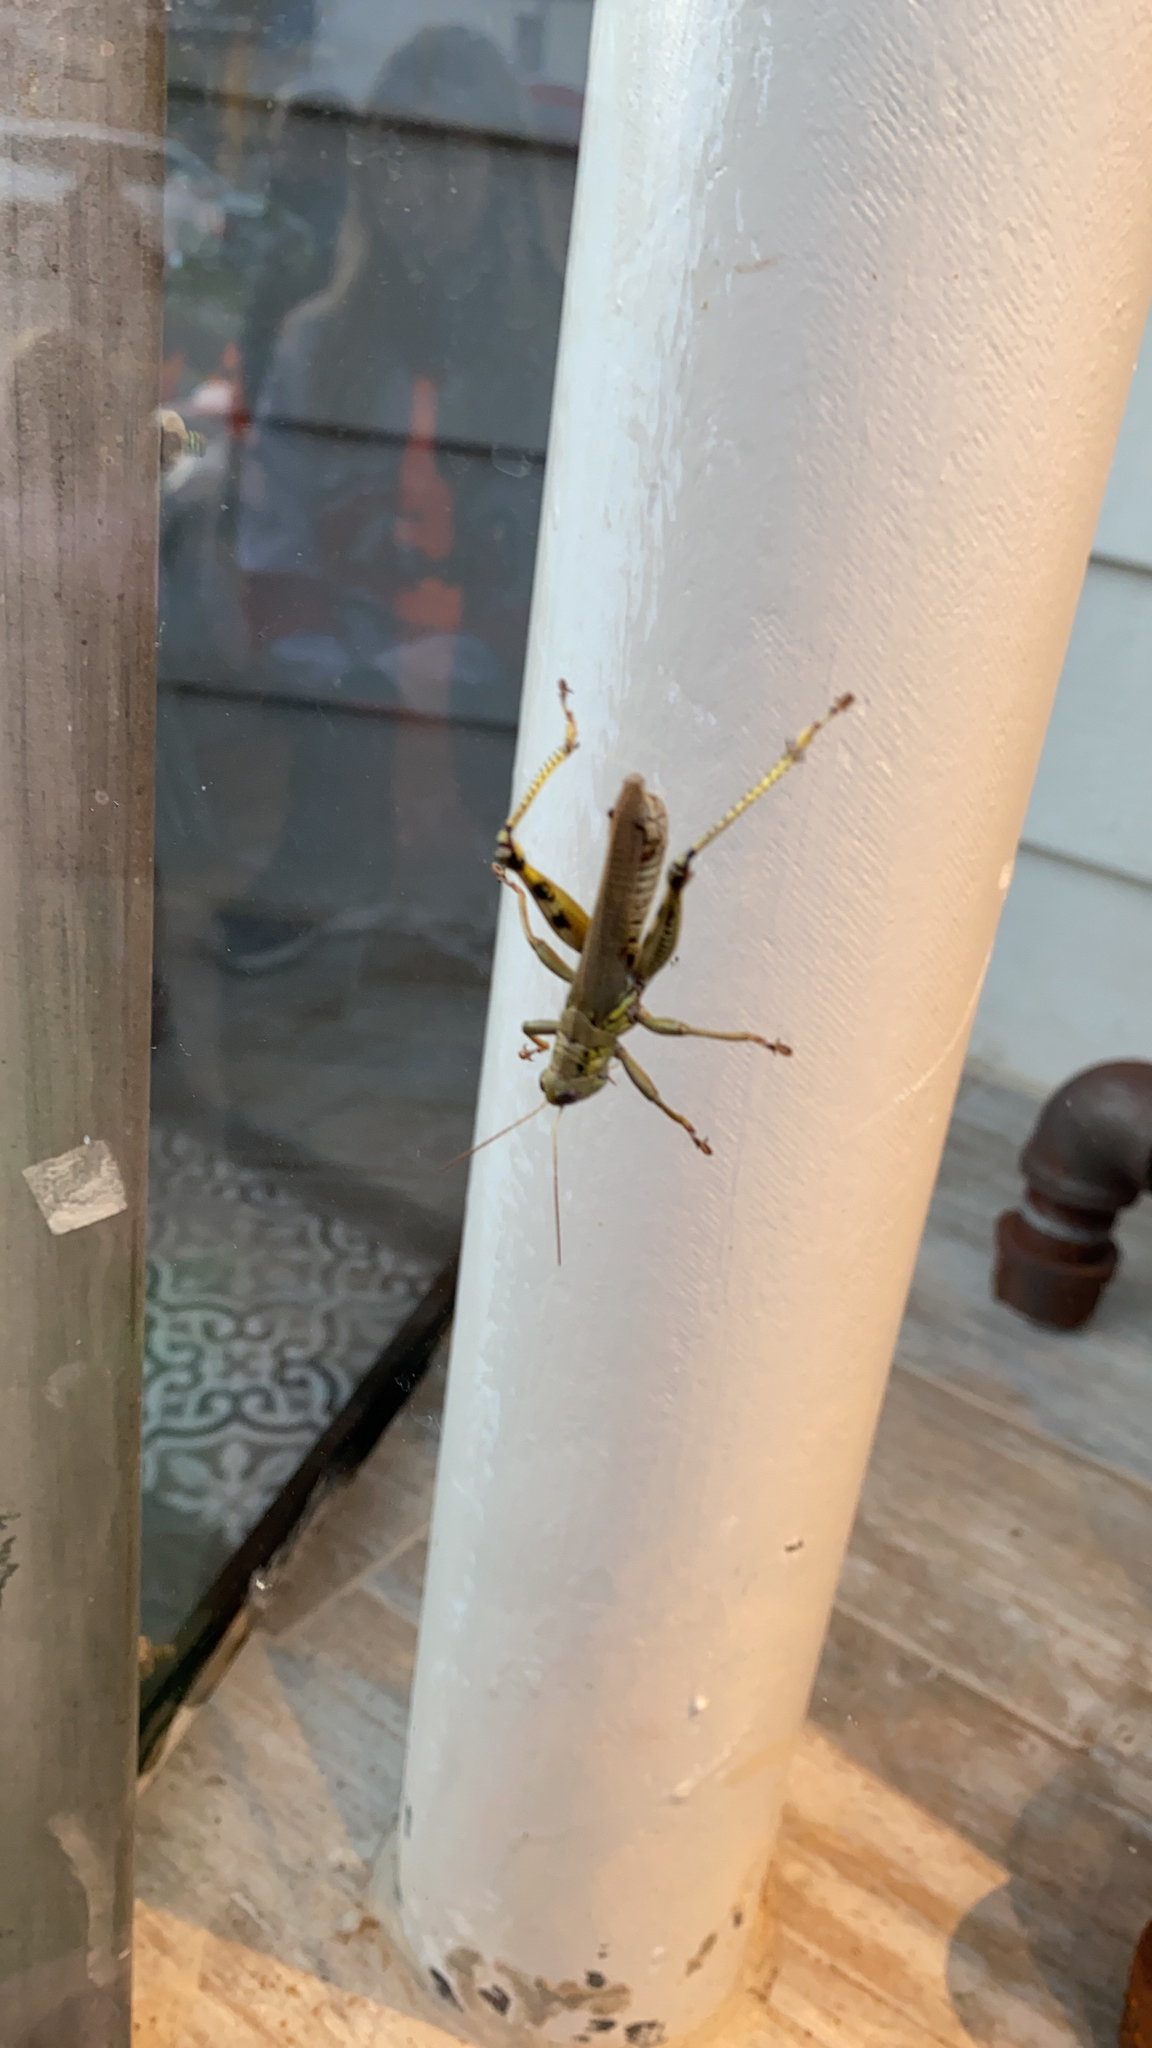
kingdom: Animalia
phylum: Arthropoda
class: Insecta
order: Orthoptera
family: Acrididae
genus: Melanoplus
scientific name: Melanoplus differentialis
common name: Differential grasshopper
